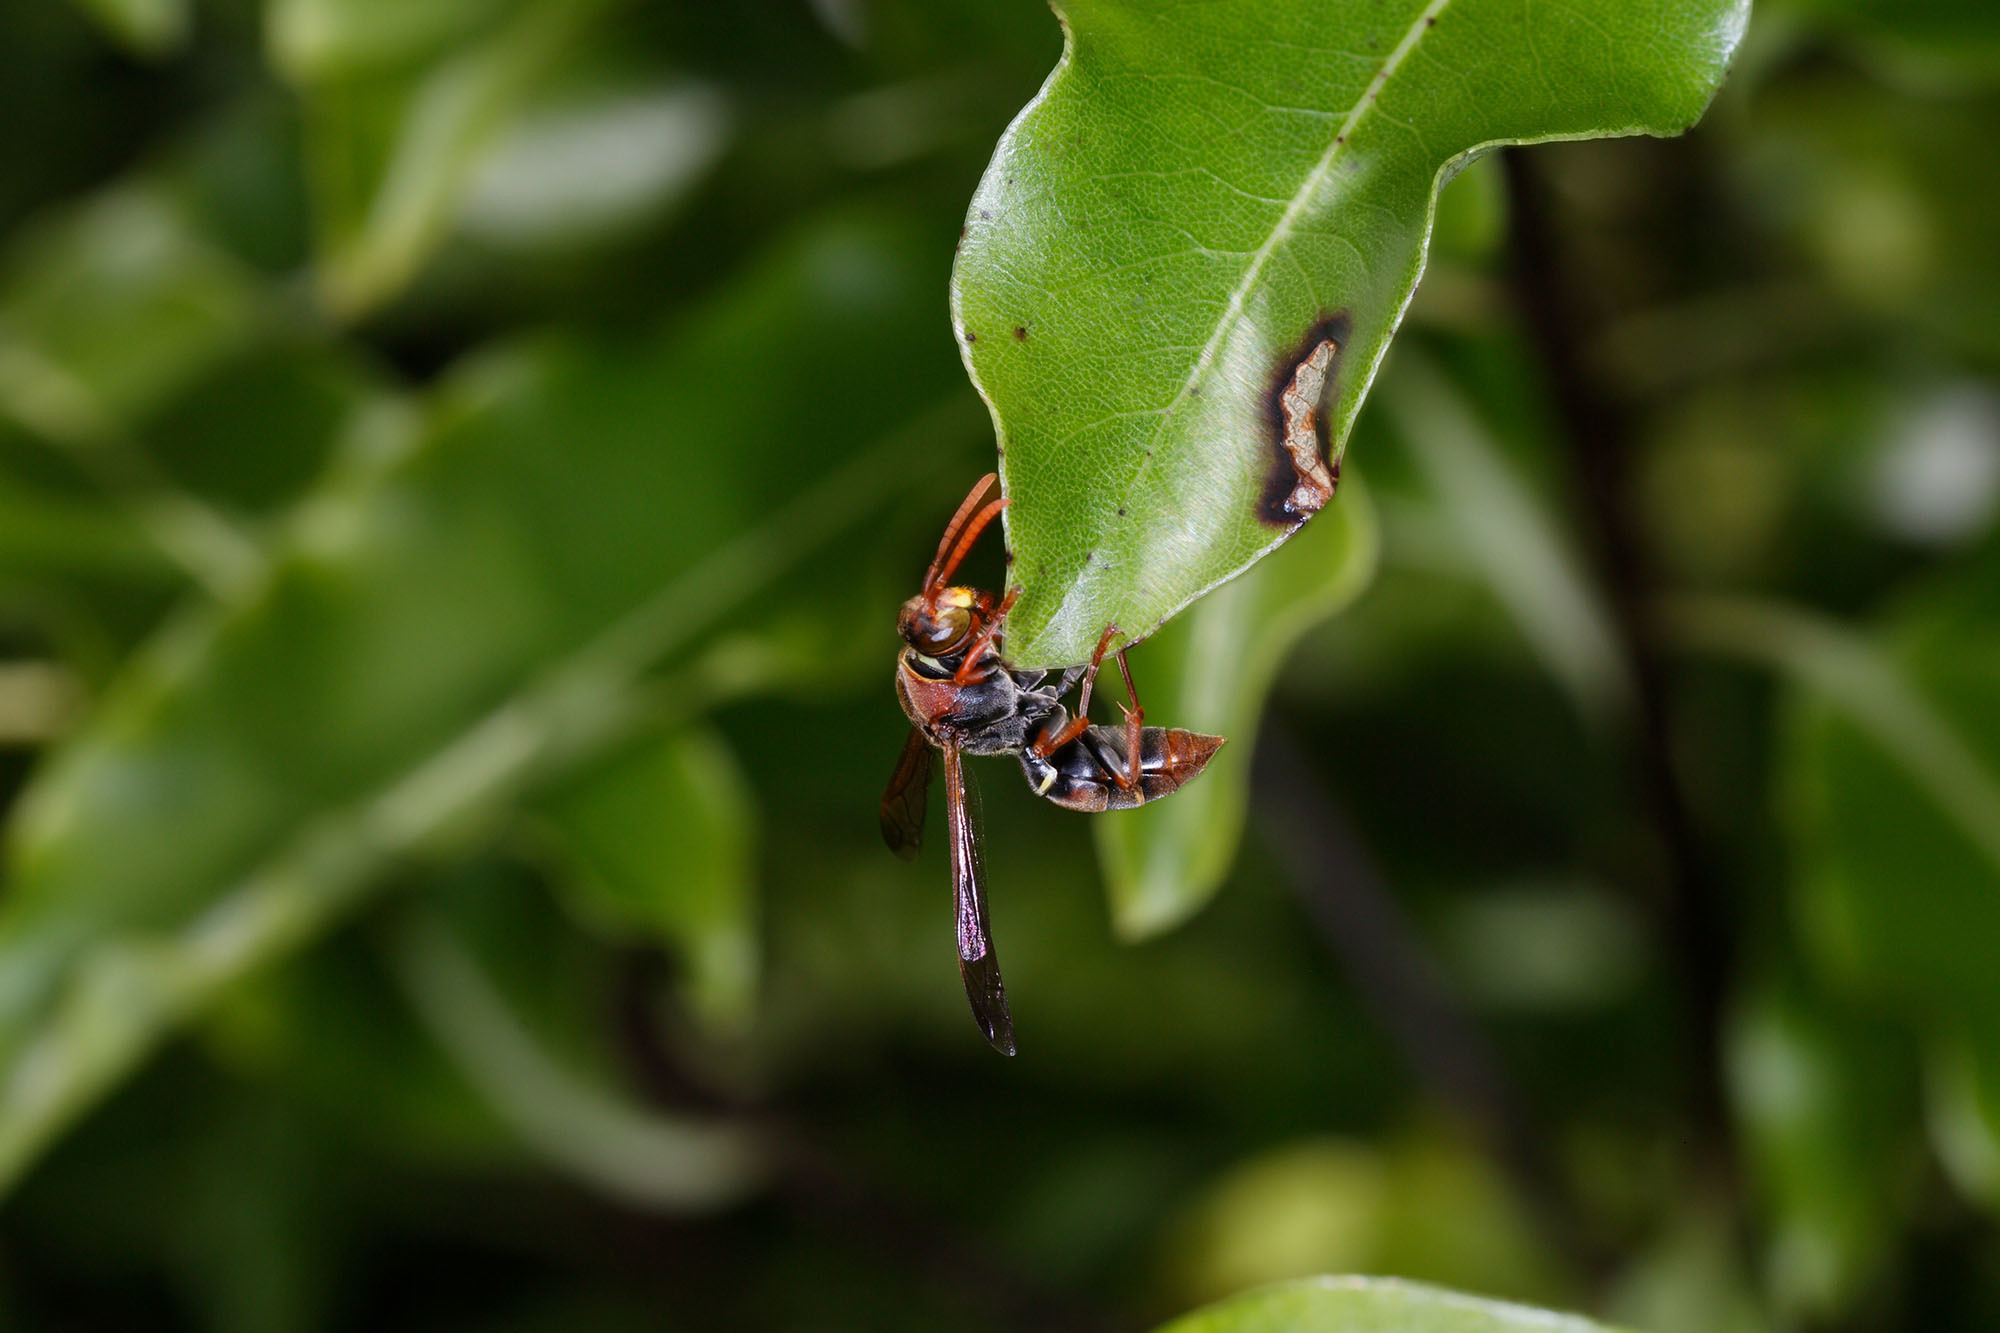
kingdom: Animalia
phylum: Arthropoda
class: Insecta
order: Hymenoptera
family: Eumenidae
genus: Polistes
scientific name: Polistes humilis
